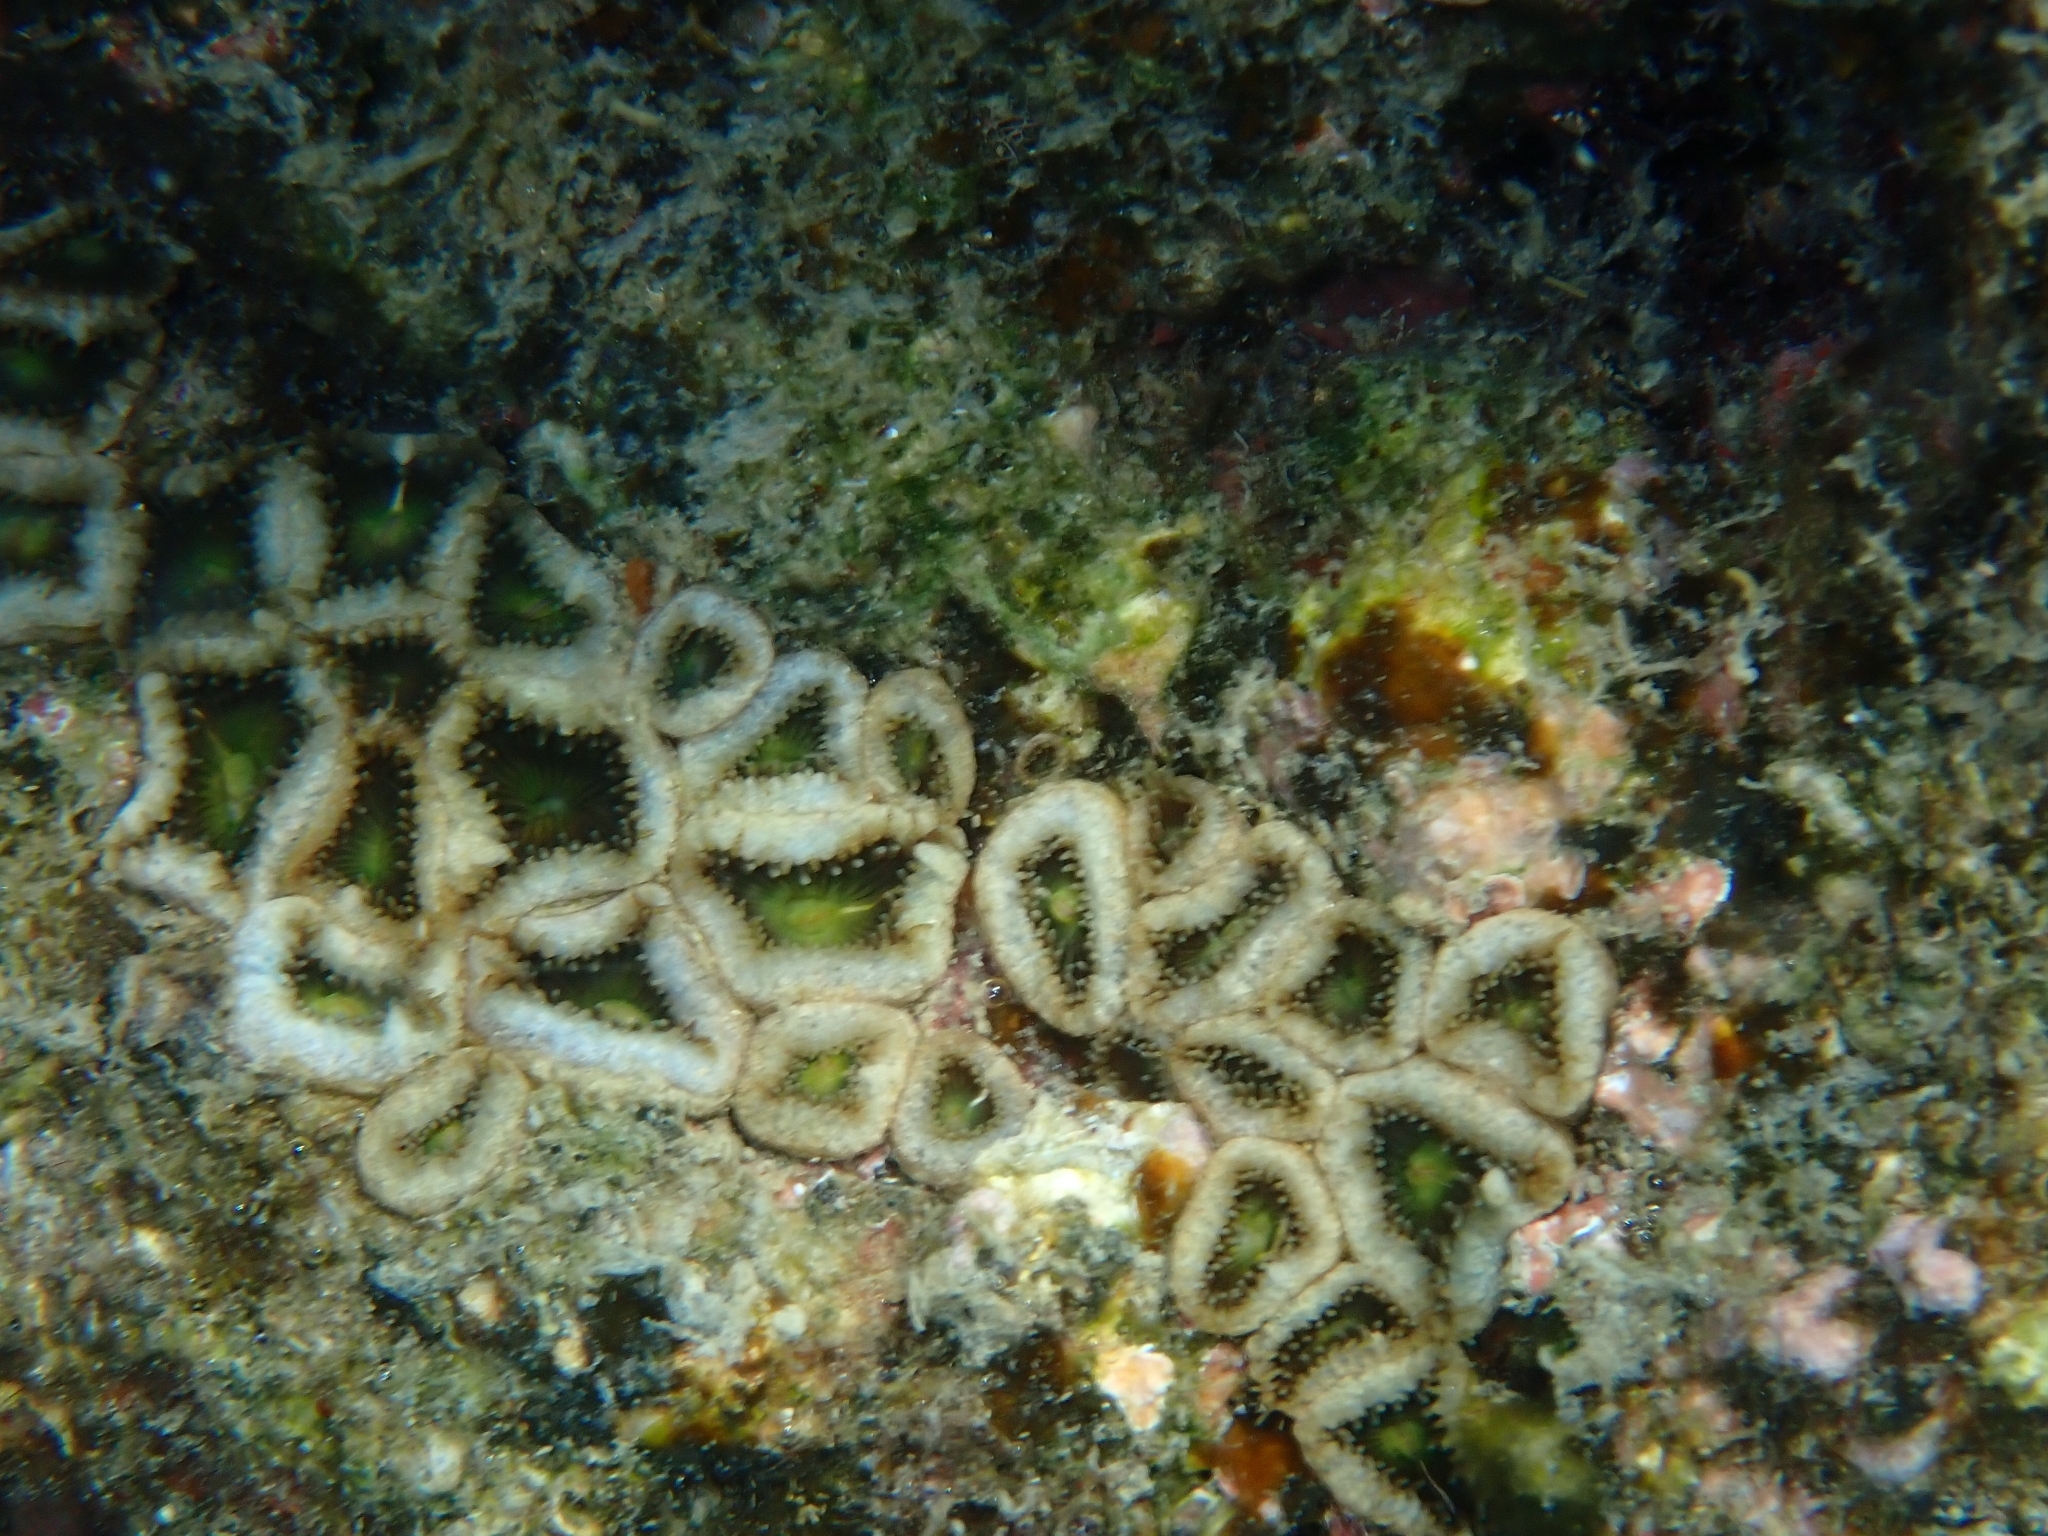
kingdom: Animalia
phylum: Cnidaria
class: Anthozoa
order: Zoantharia
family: Sphenopidae
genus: Palythoa
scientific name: Palythoa mutuki
